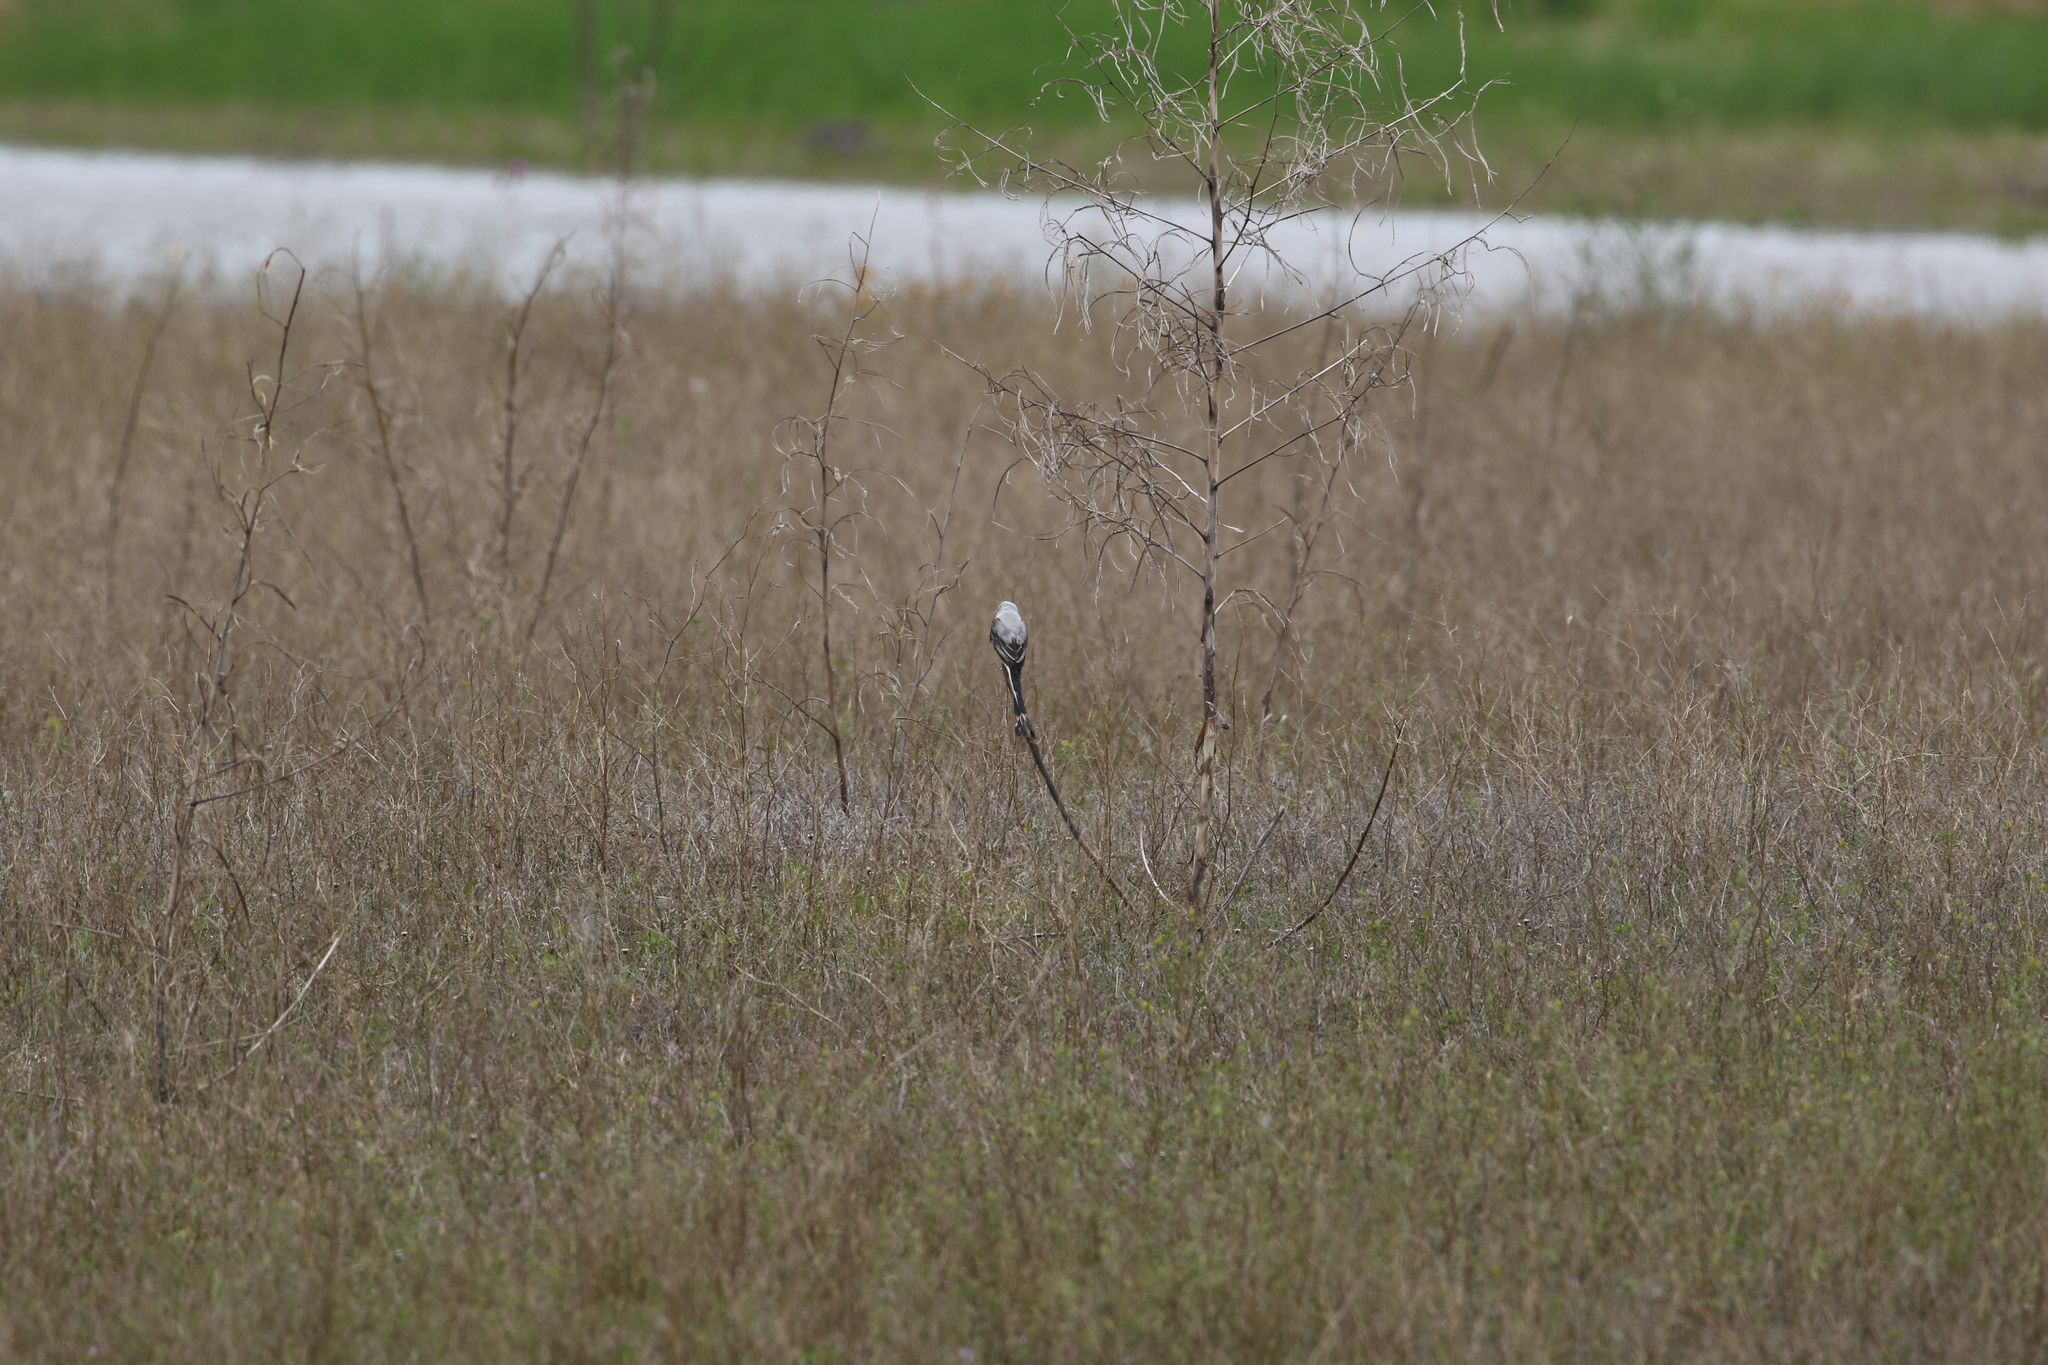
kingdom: Animalia
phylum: Chordata
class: Aves
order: Passeriformes
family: Tyrannidae
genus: Tyrannus
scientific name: Tyrannus forficatus
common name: Scissor-tailed flycatcher
